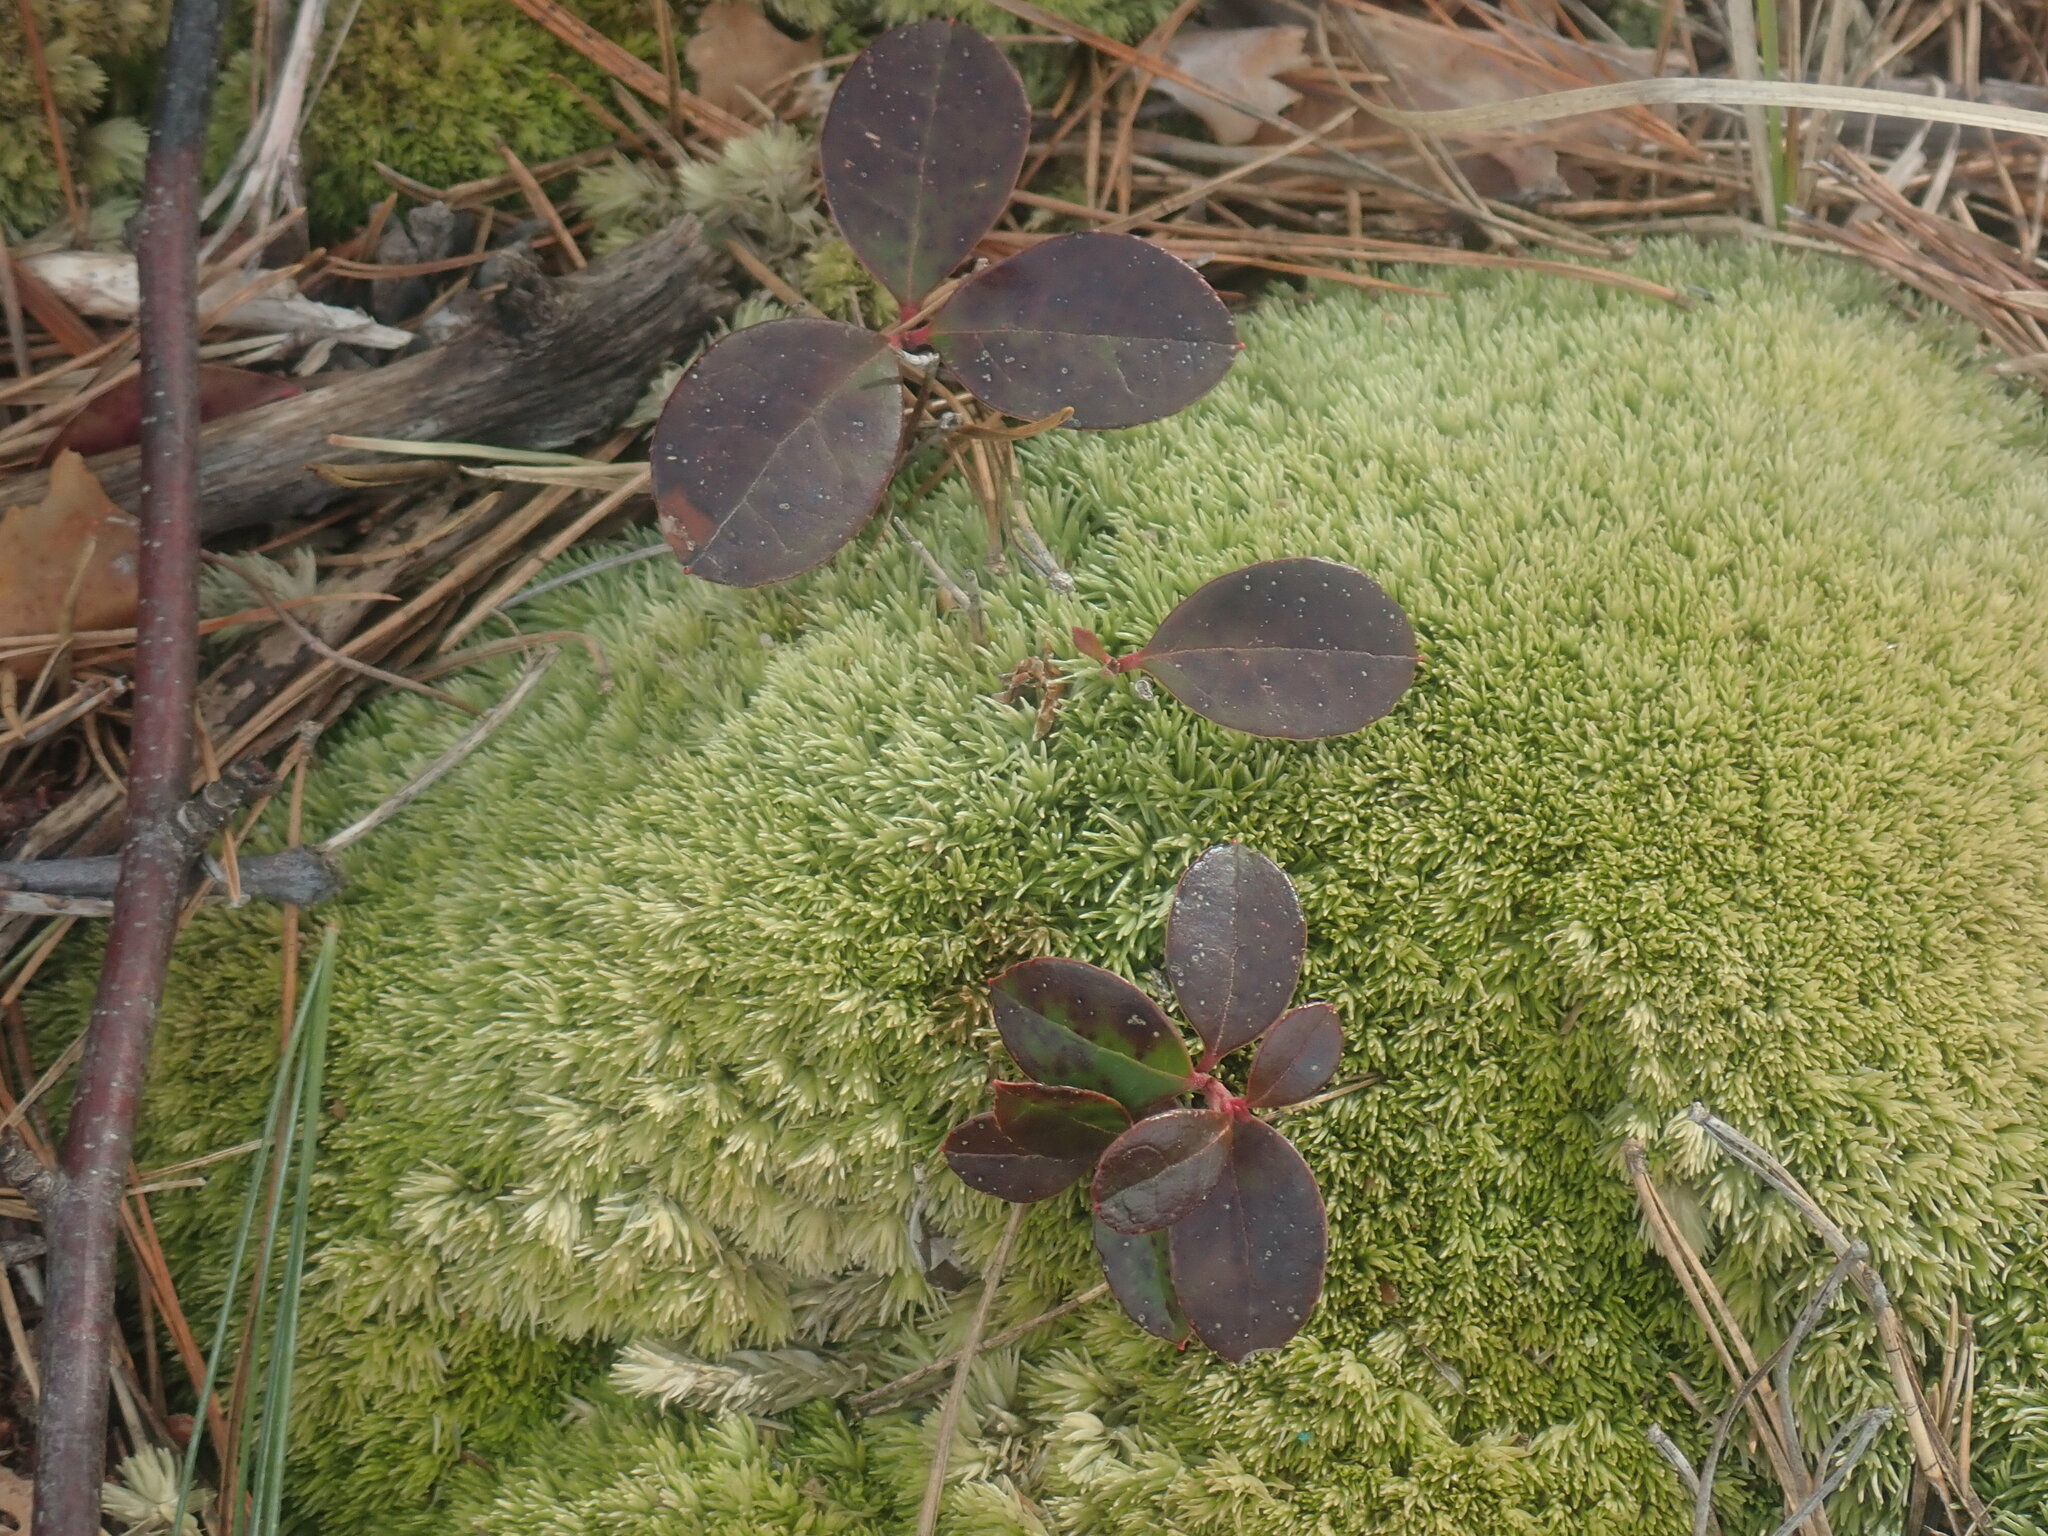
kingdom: Plantae
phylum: Tracheophyta
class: Magnoliopsida
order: Ericales
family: Ericaceae
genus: Gaultheria
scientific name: Gaultheria procumbens
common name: Checkerberry
